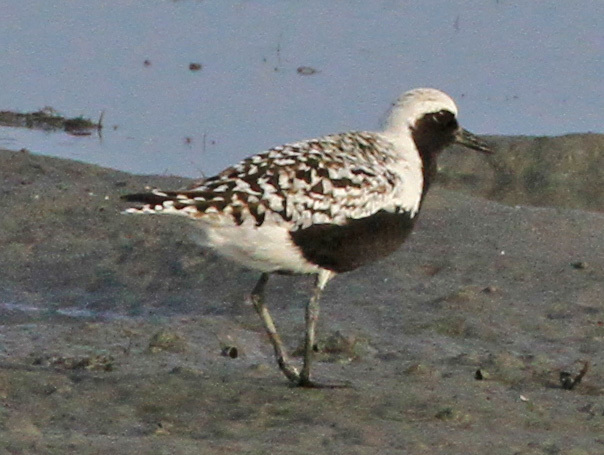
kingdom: Animalia
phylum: Chordata
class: Aves
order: Charadriiformes
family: Charadriidae
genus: Pluvialis
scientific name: Pluvialis squatarola
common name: Grey plover
